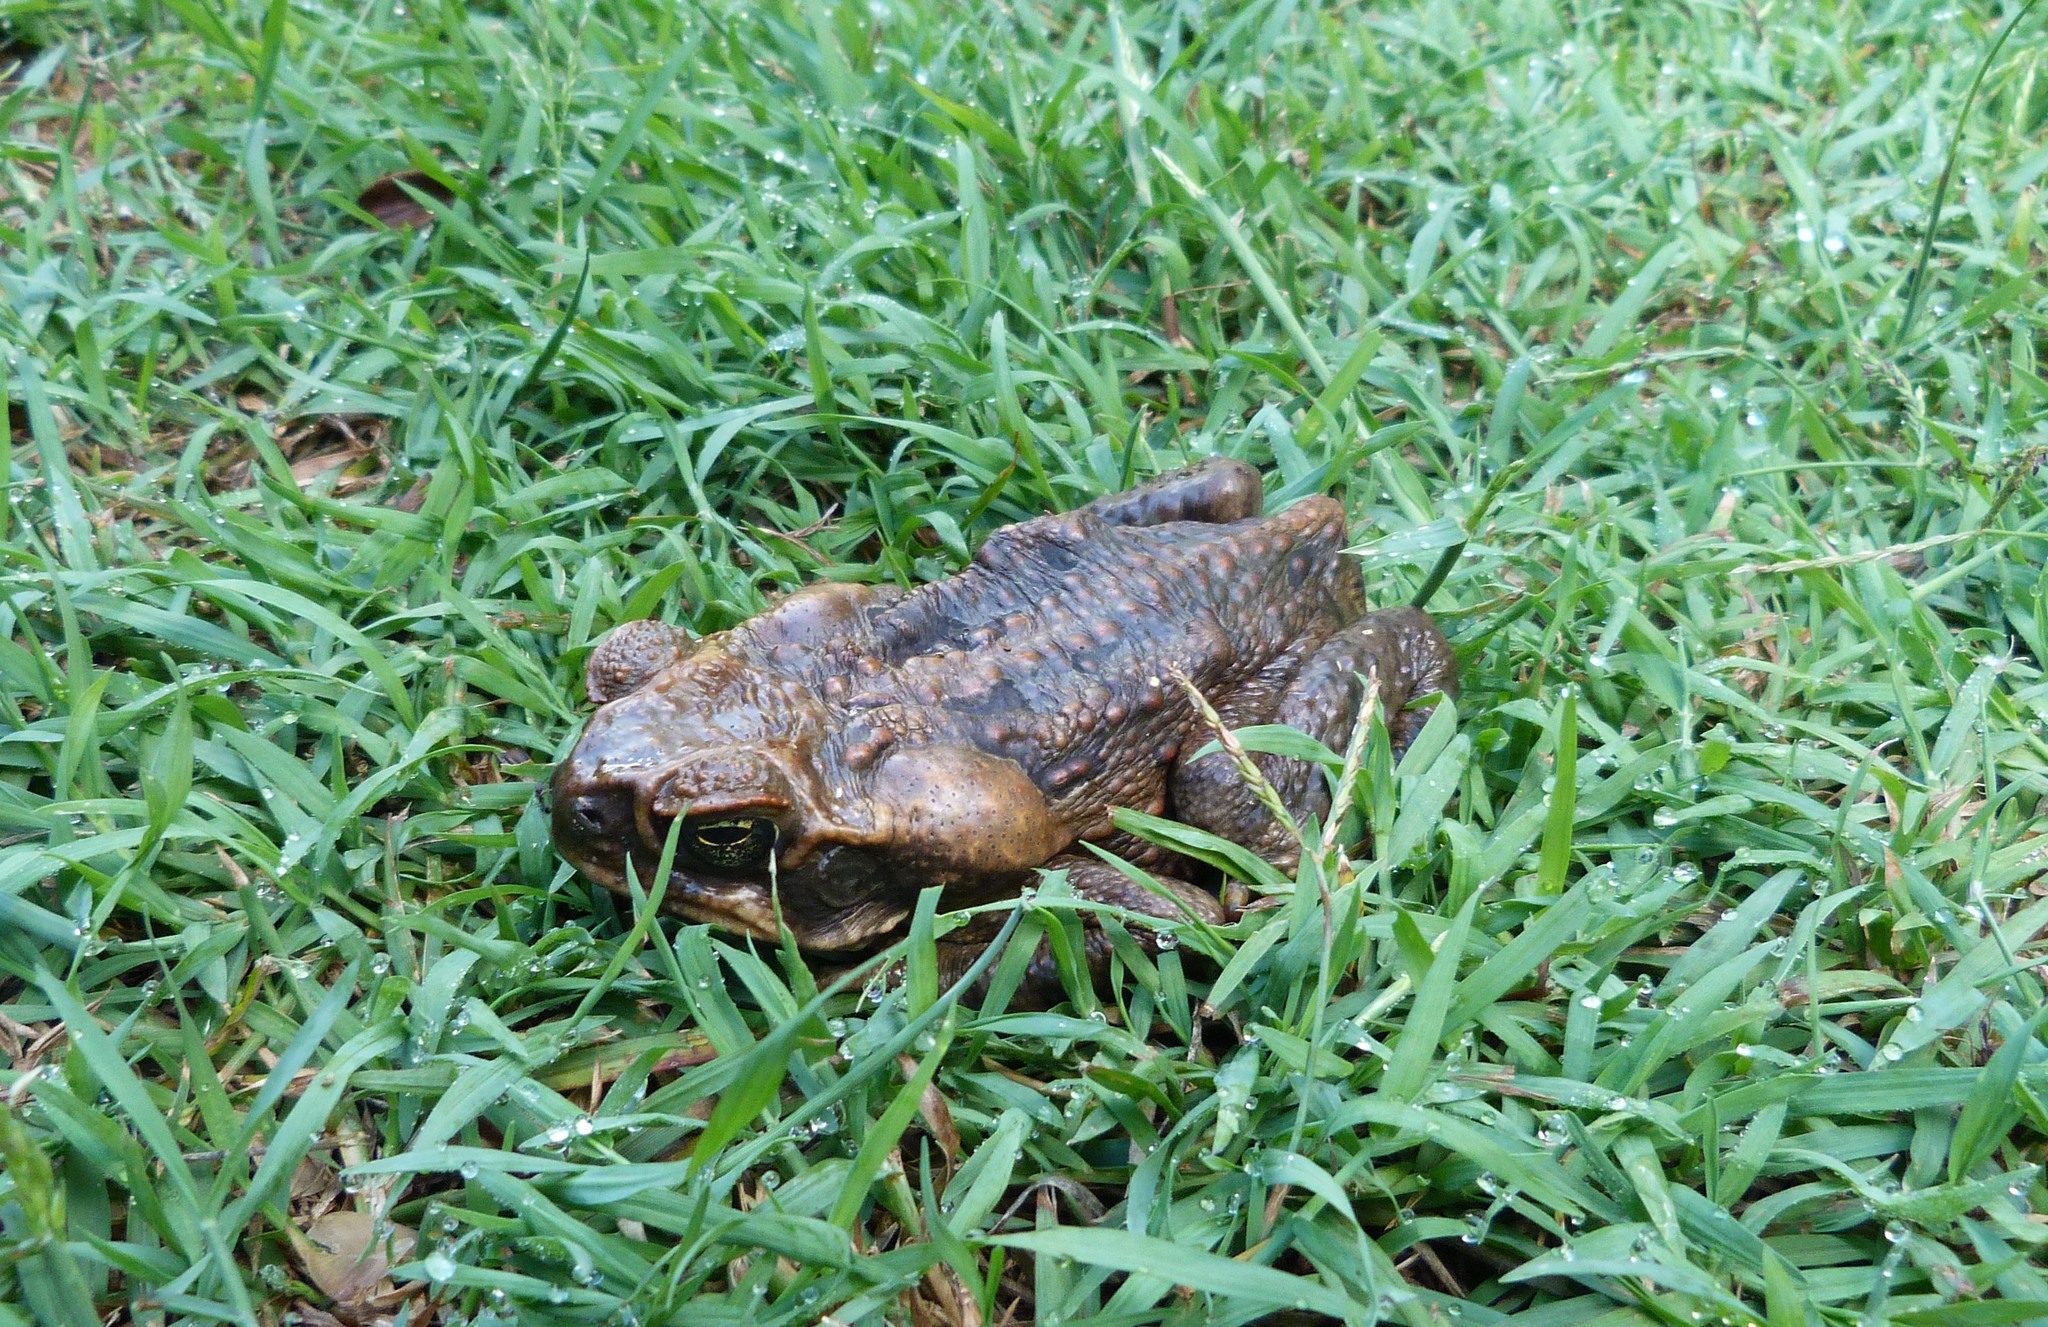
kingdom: Animalia
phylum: Chordata
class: Amphibia
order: Anura
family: Bufonidae
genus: Rhinella
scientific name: Rhinella marina
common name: Cane toad
